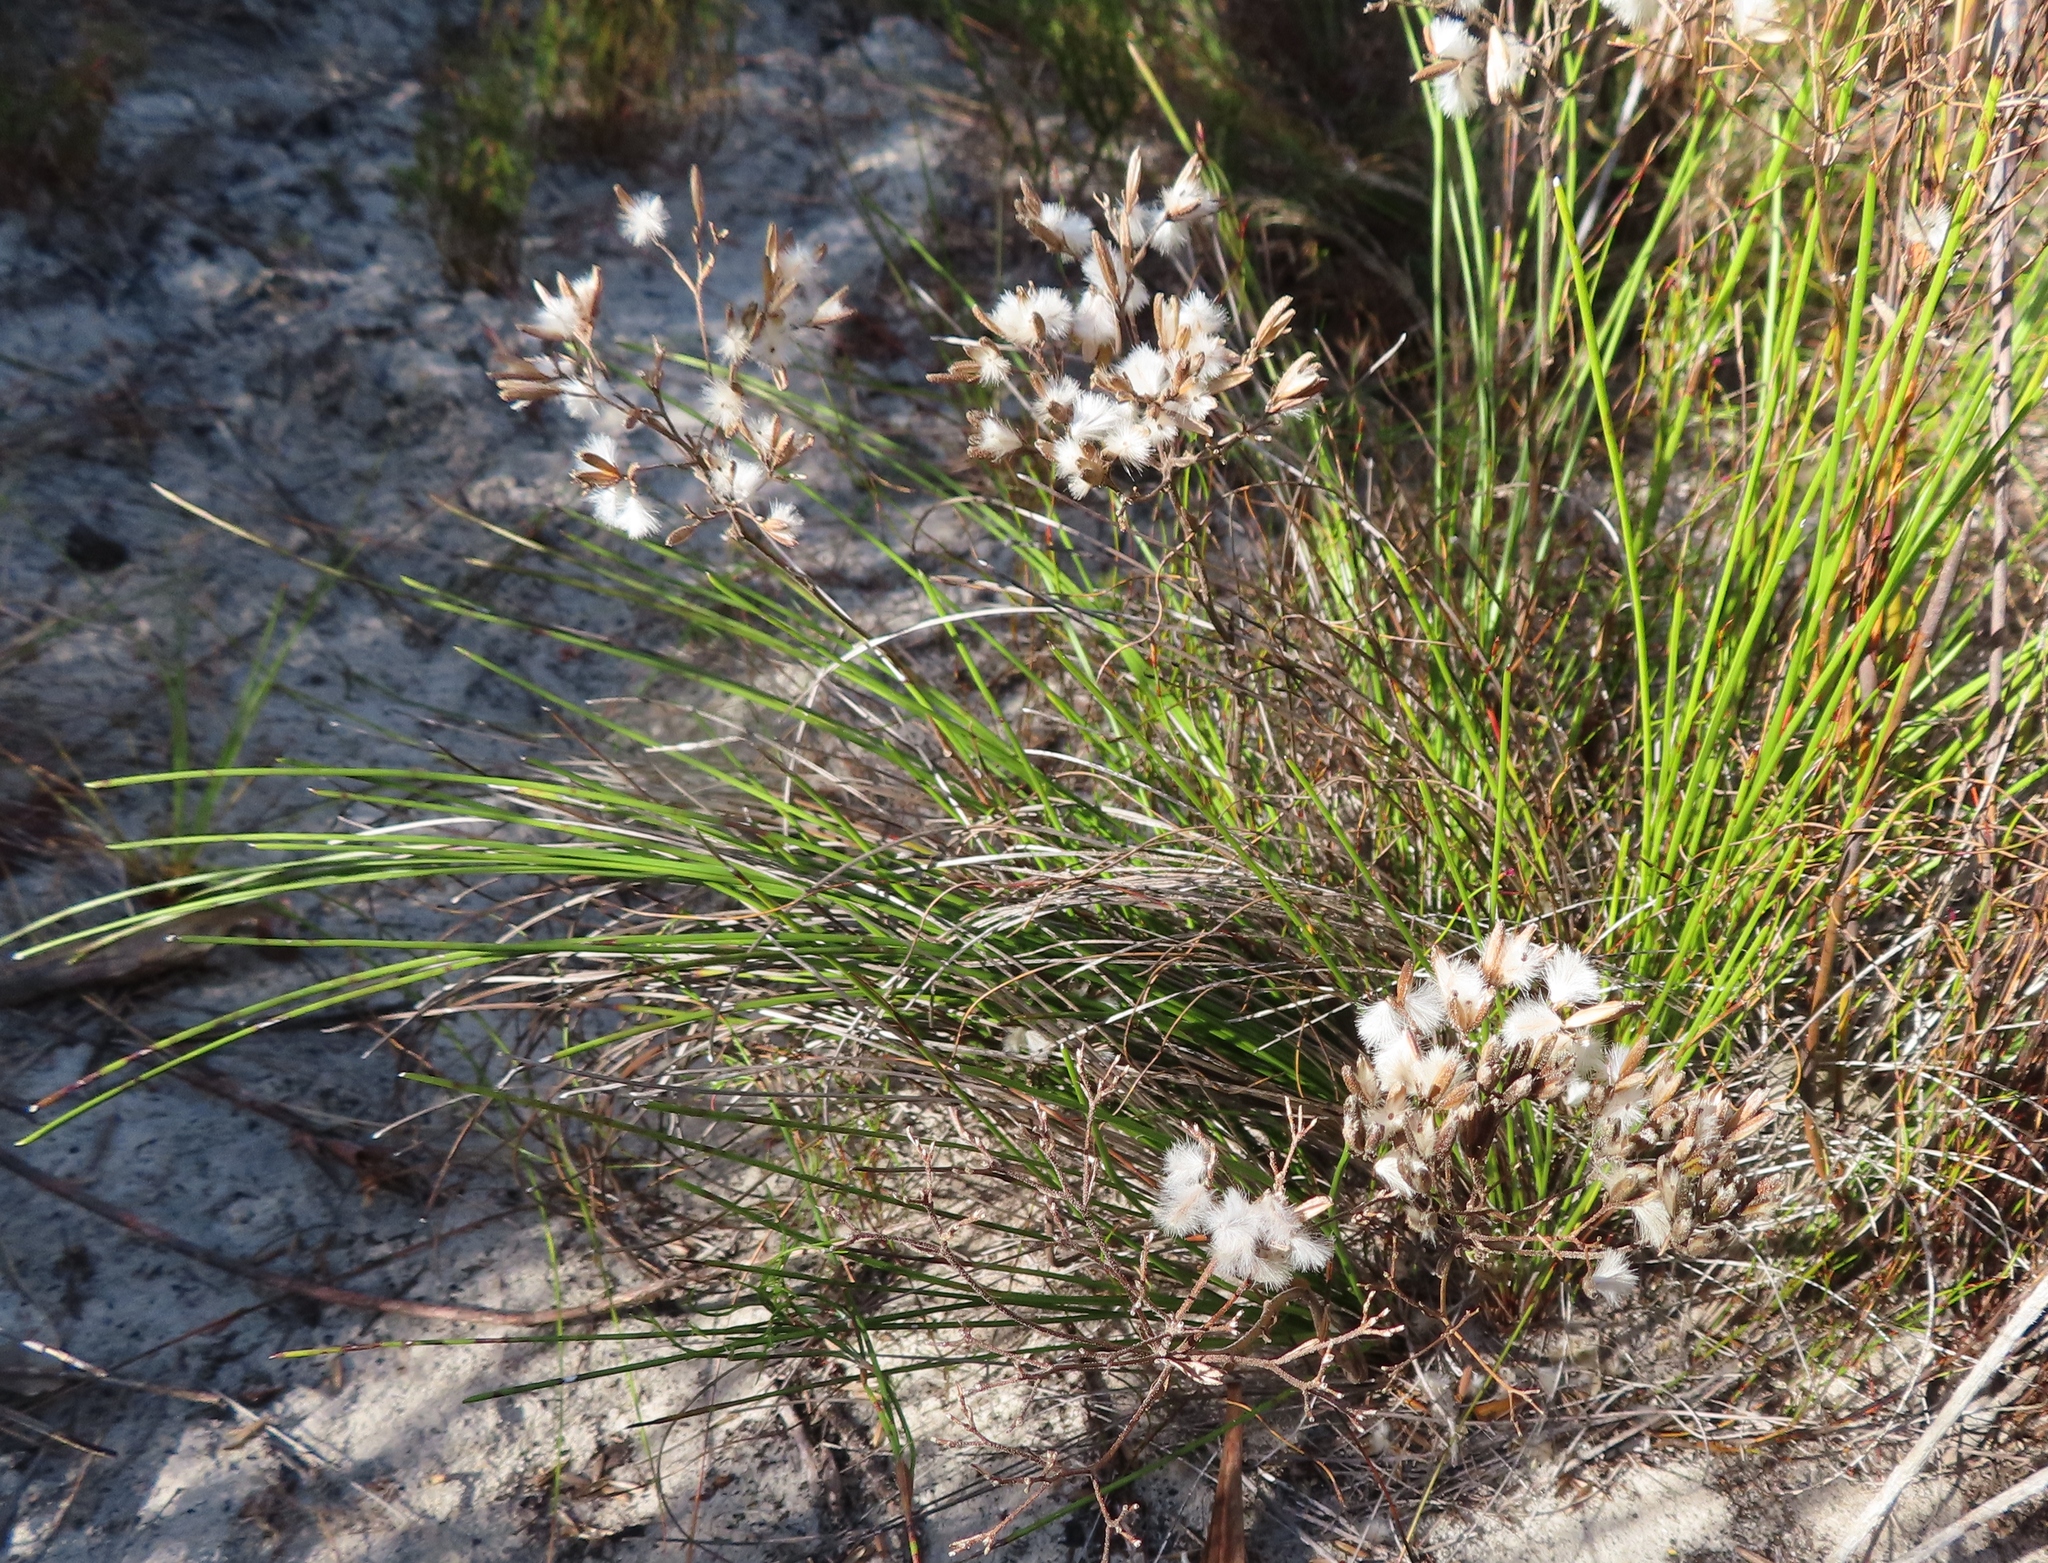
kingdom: Plantae
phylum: Tracheophyta
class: Magnoliopsida
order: Asterales
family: Asteraceae
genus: Corymbium
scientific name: Corymbium africanum
